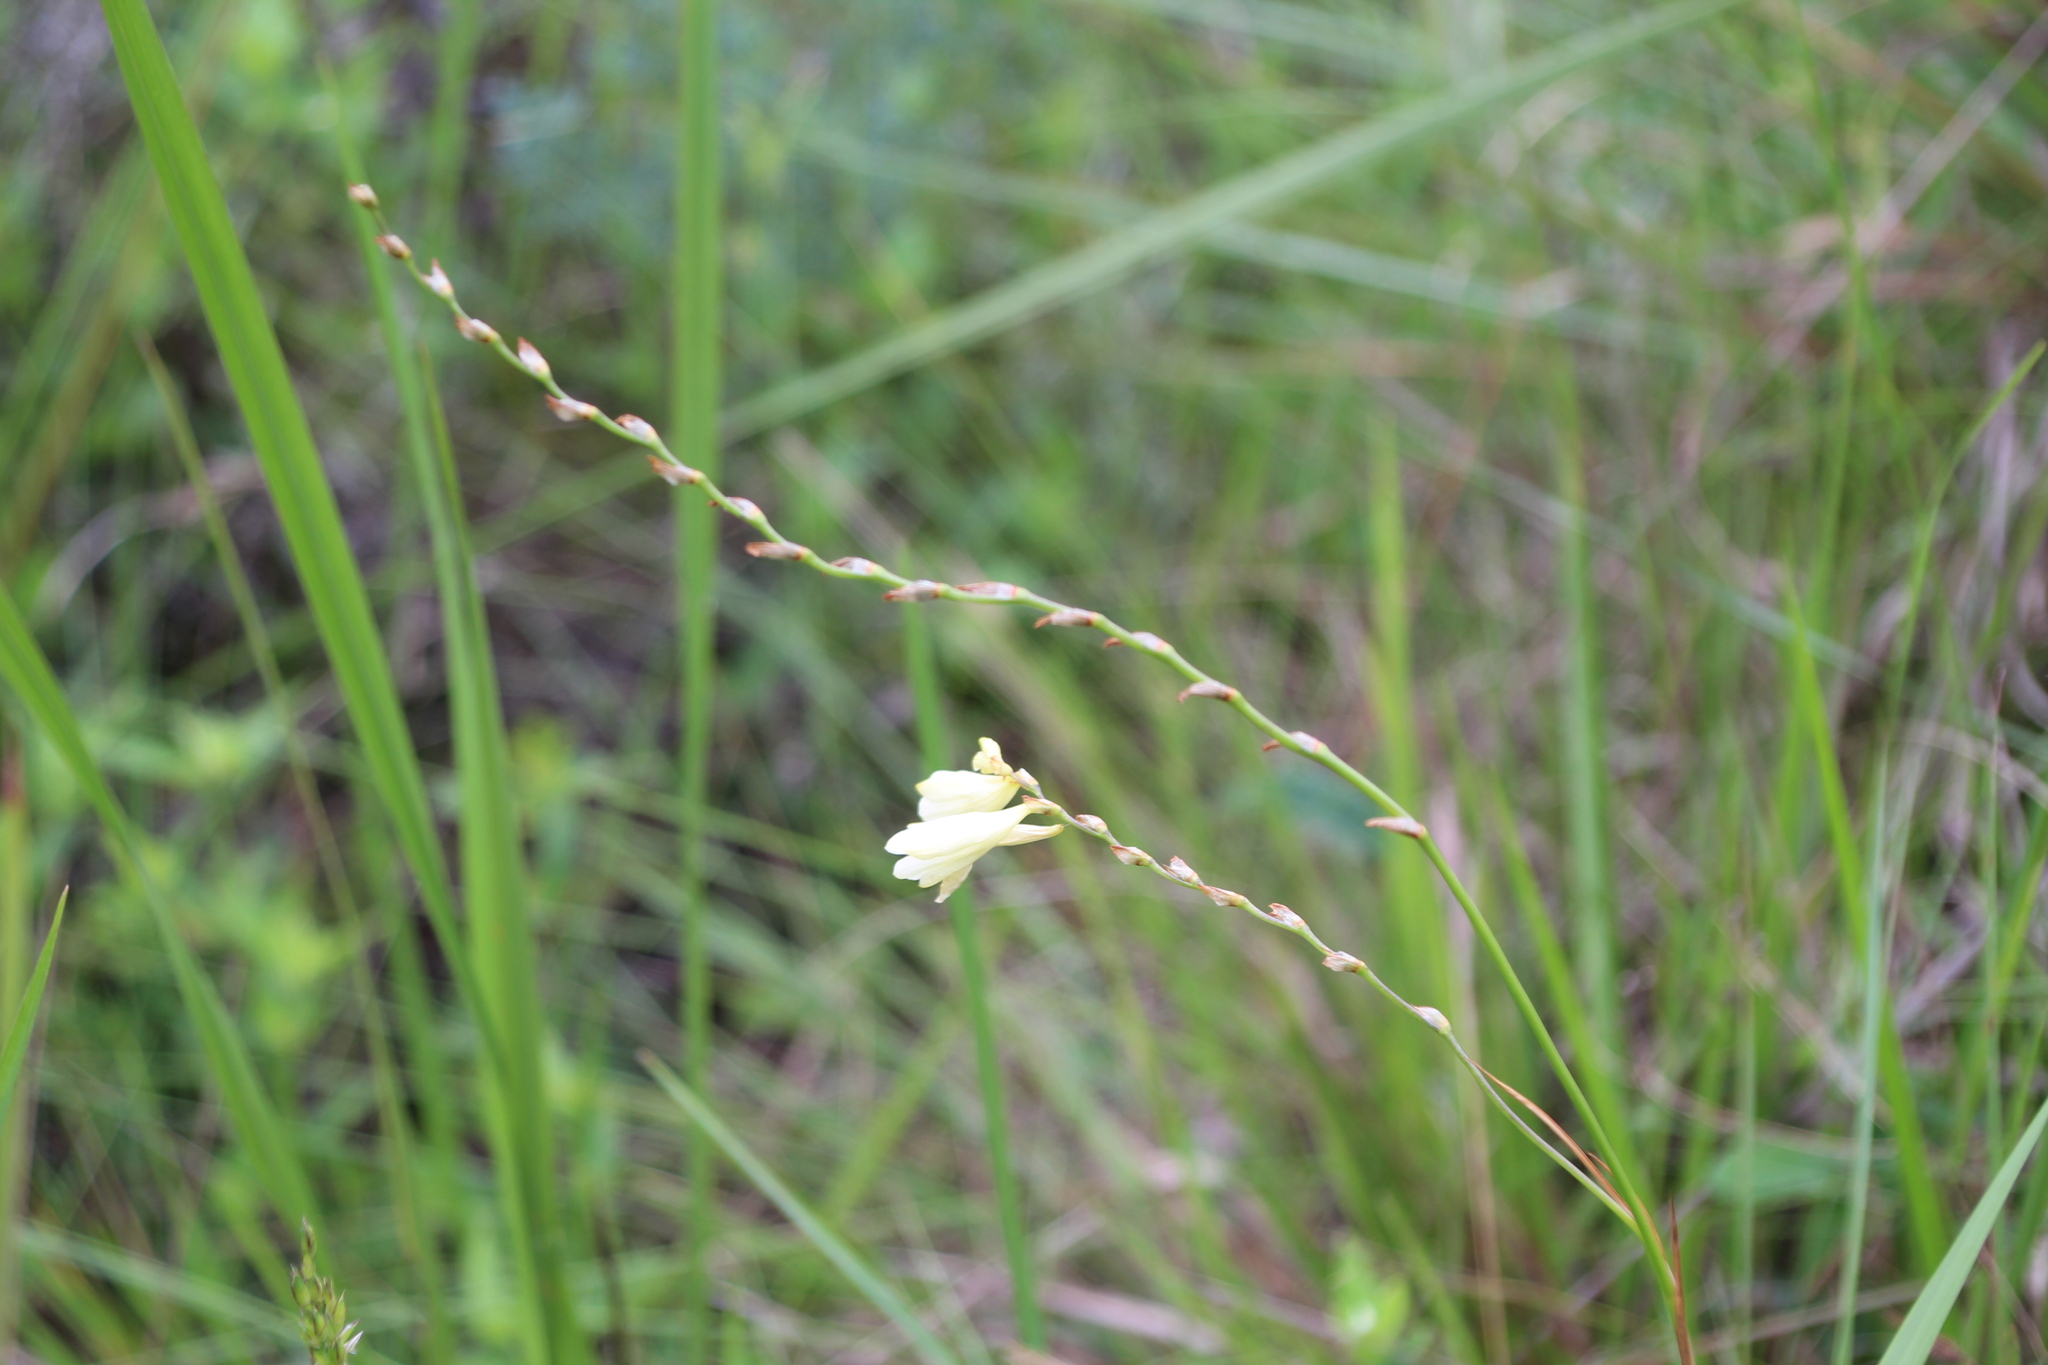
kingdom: Plantae
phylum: Tracheophyta
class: Liliopsida
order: Asparagales
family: Iridaceae
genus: Tritonia
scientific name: Tritonia gladiolaris
